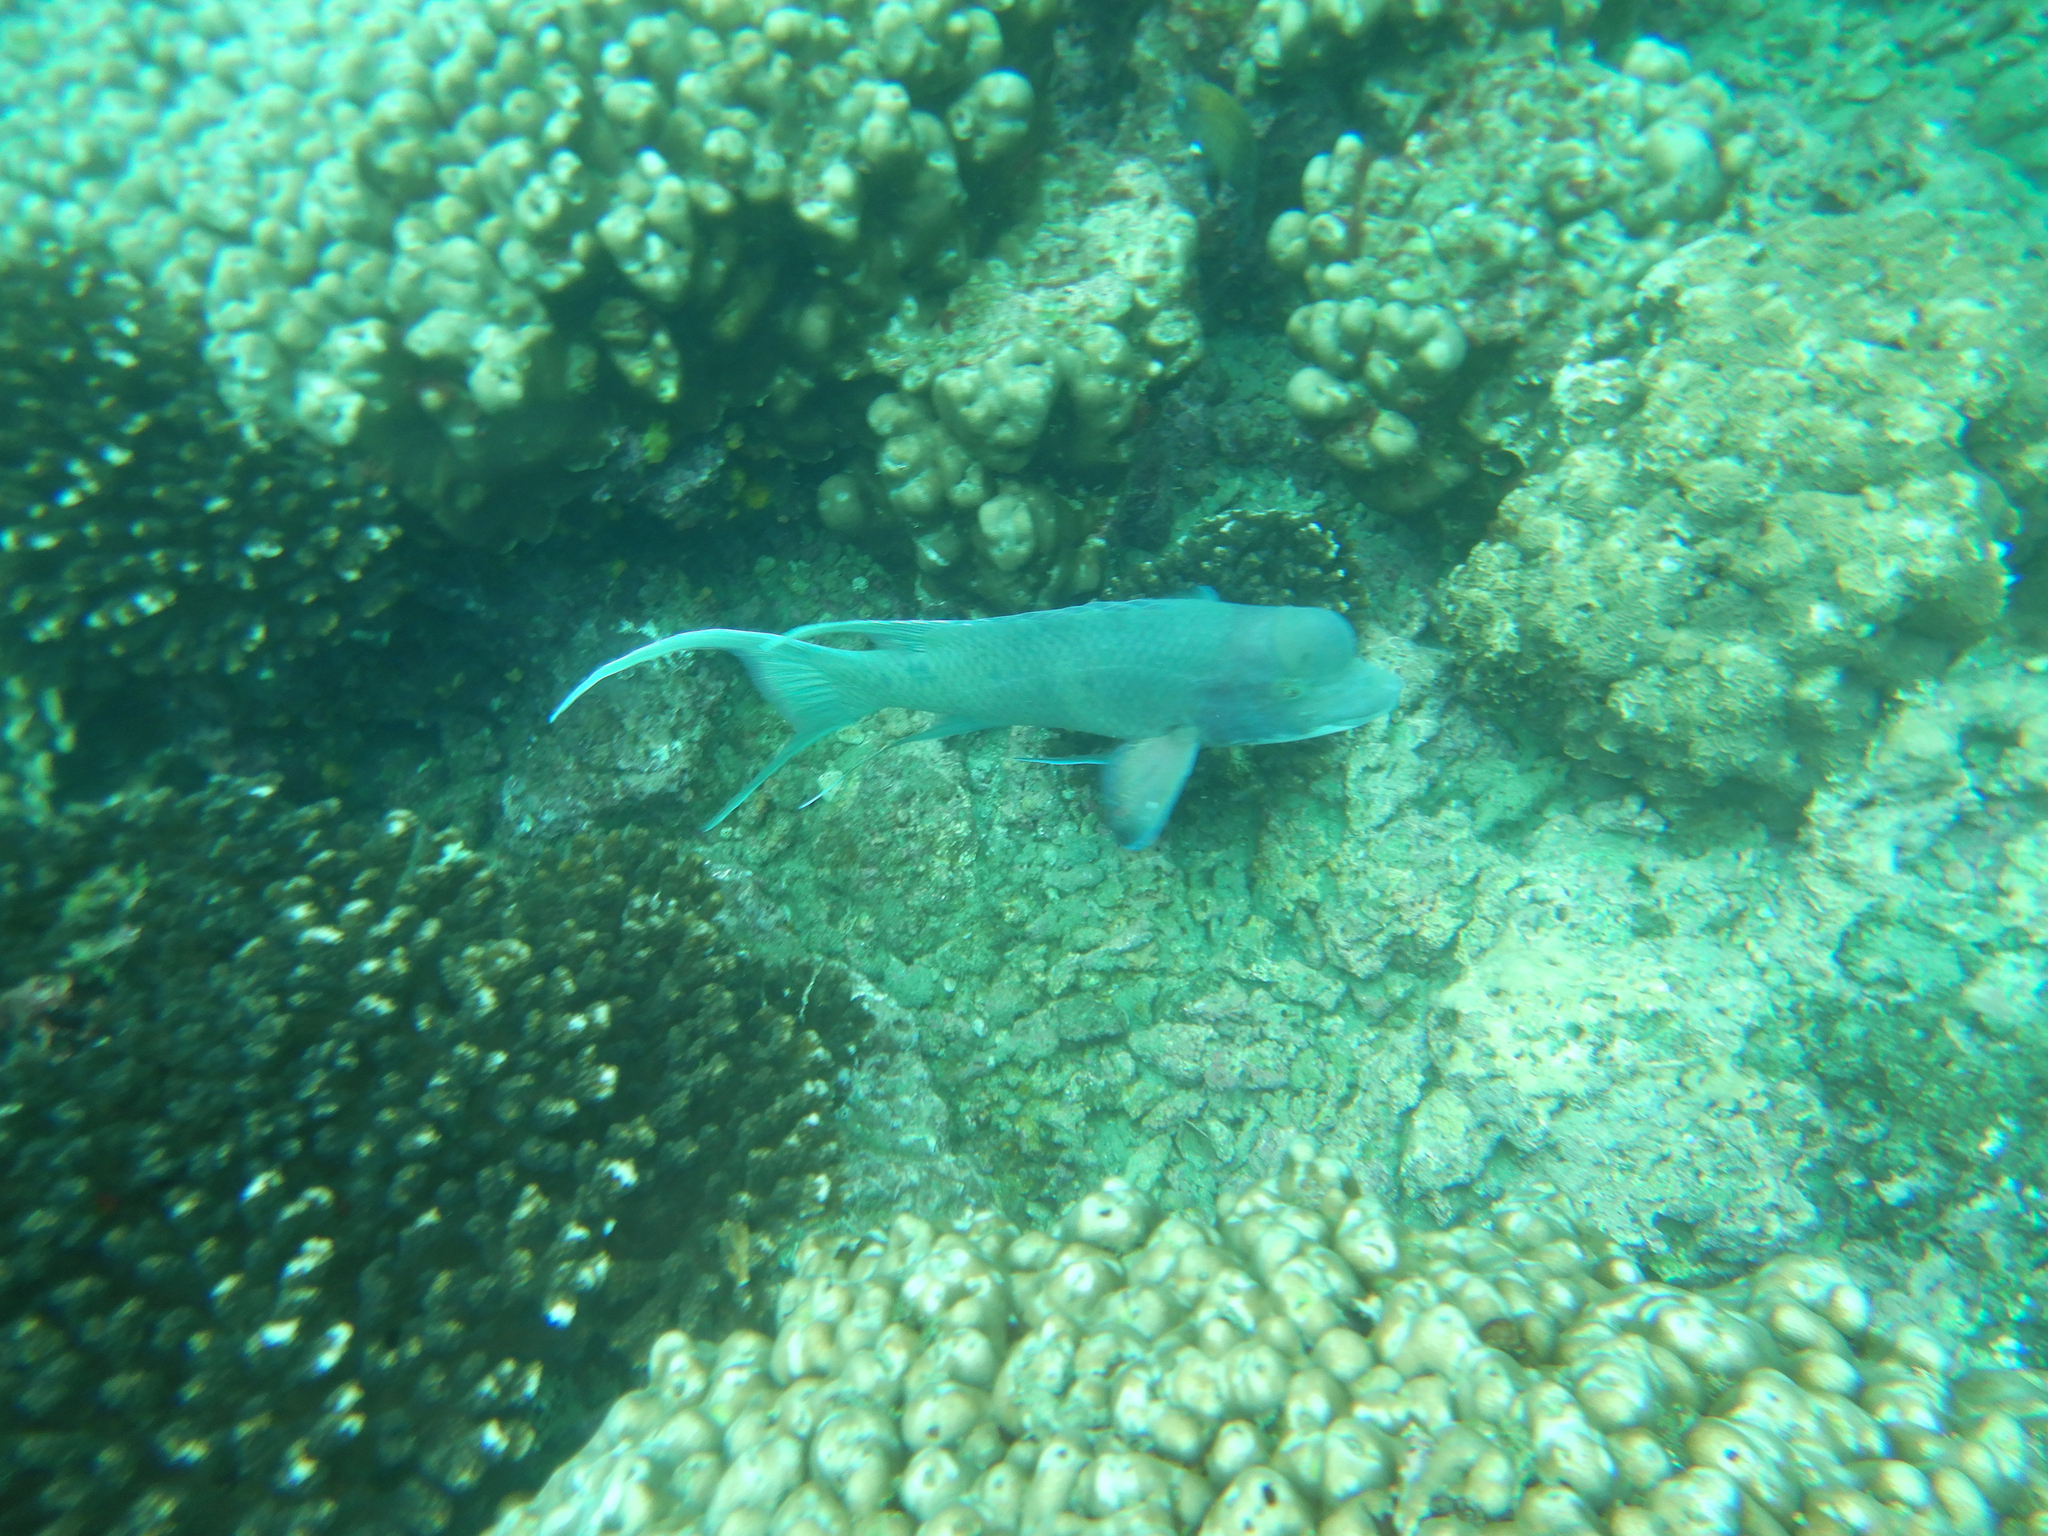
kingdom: Animalia
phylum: Chordata
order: Perciformes
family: Labridae
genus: Bodianus
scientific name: Bodianus diplotaenia
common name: Mexican hogfish
